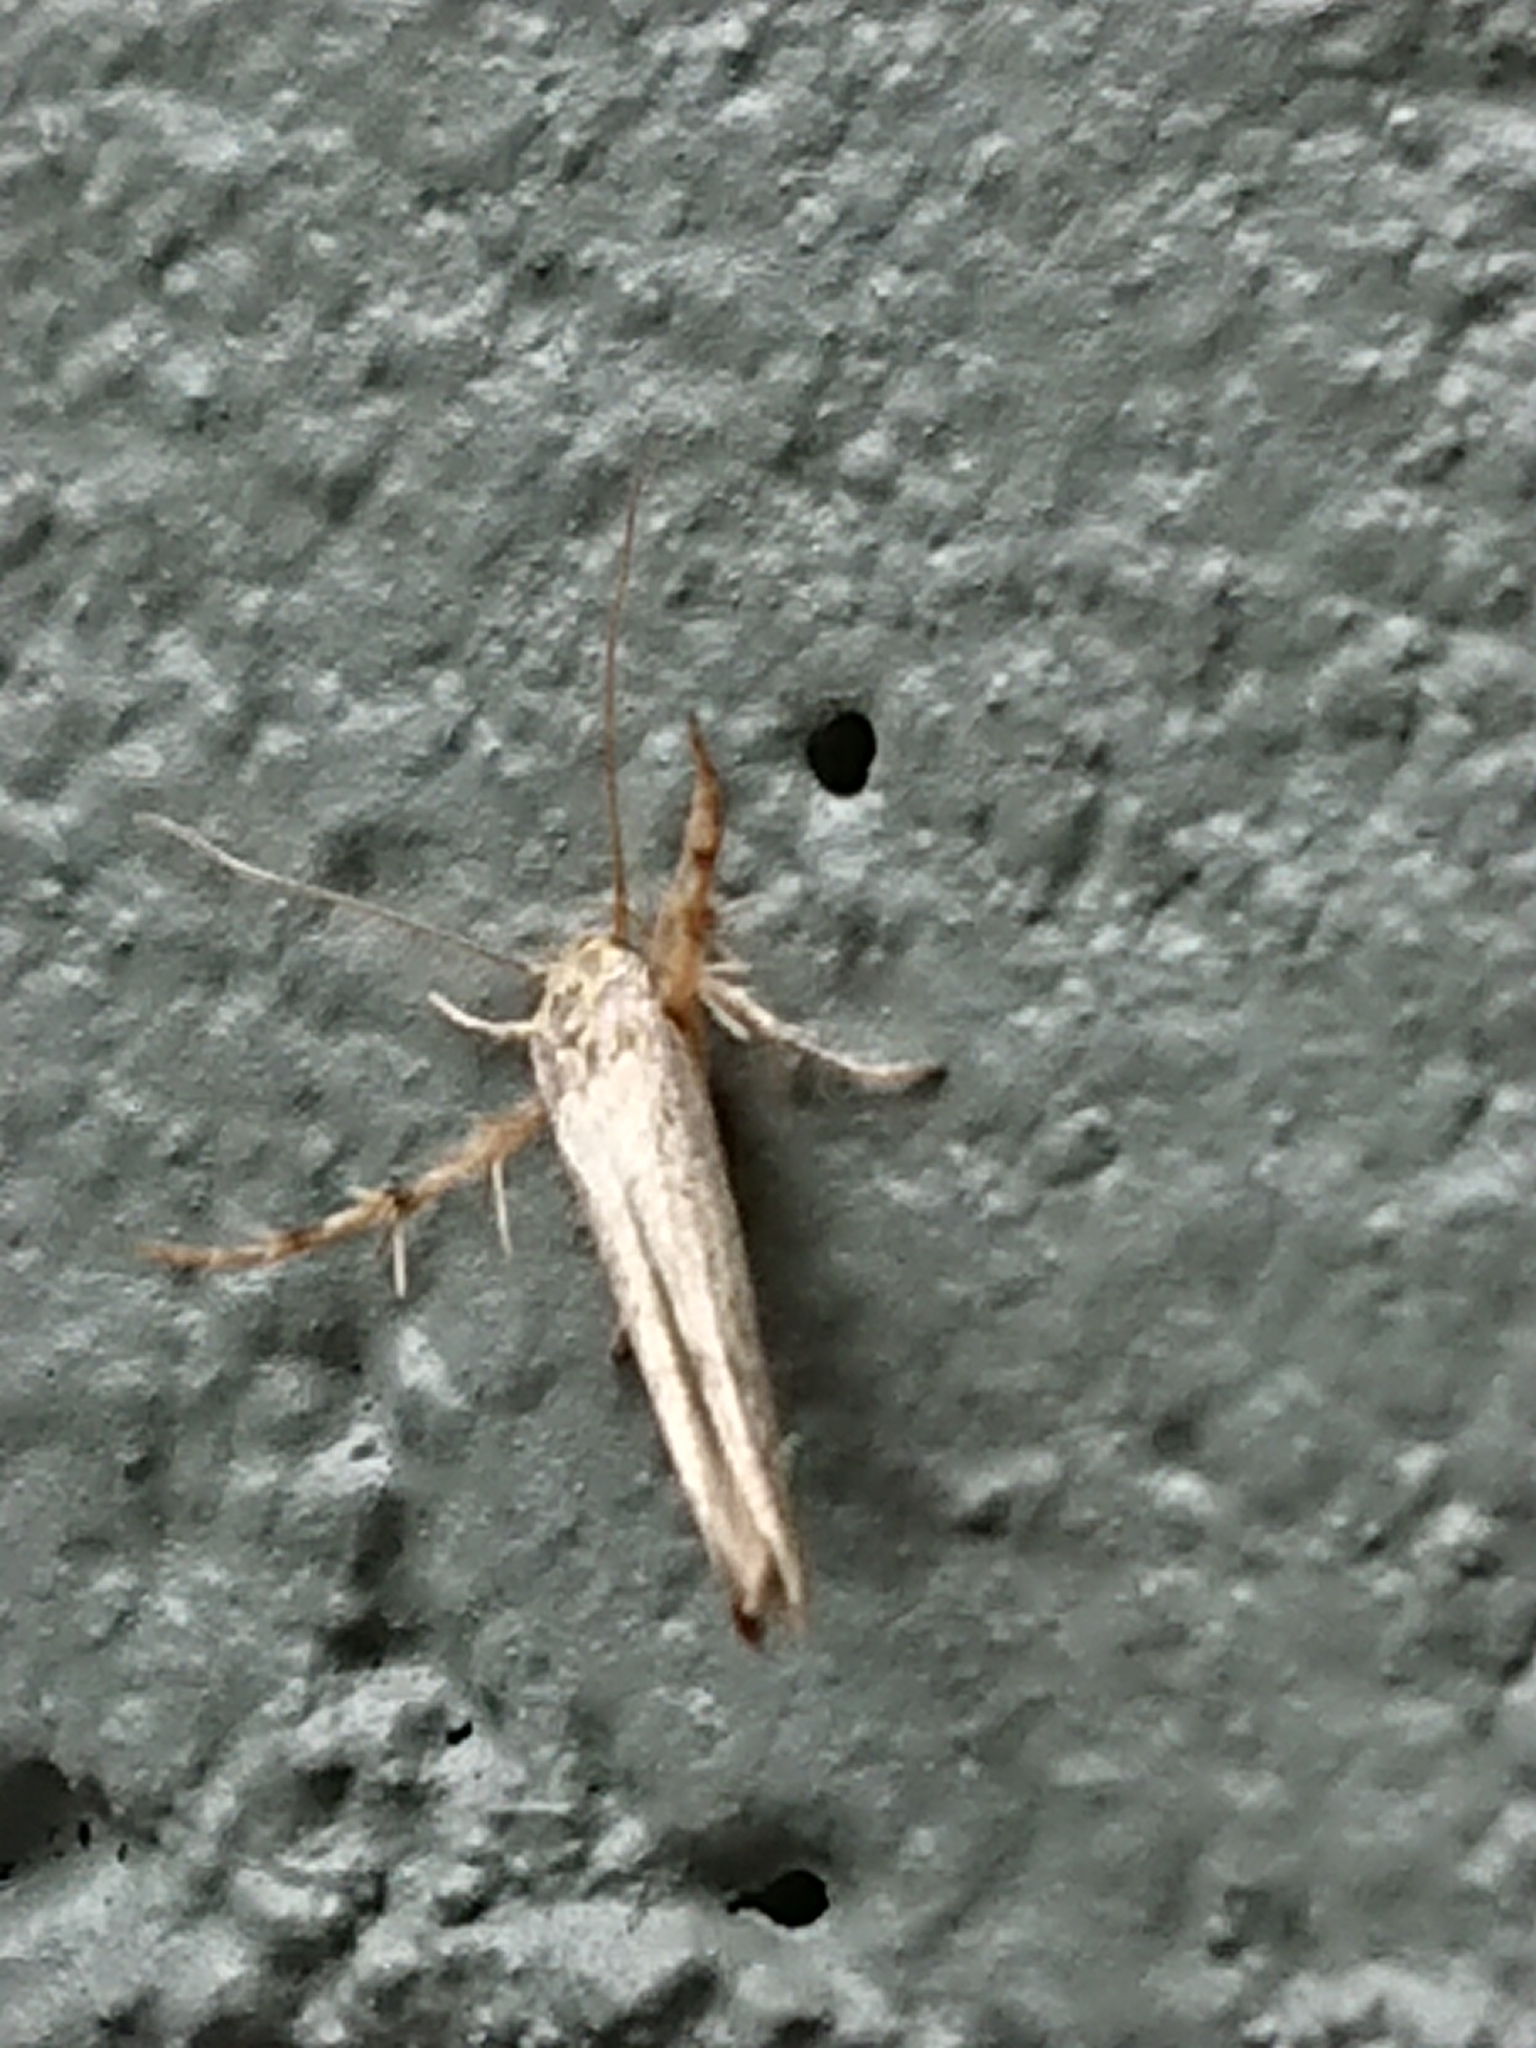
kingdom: Animalia
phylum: Arthropoda
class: Insecta
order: Lepidoptera
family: Stathmopodidae
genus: Stathmopoda
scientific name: Stathmopoda plumbiflua
